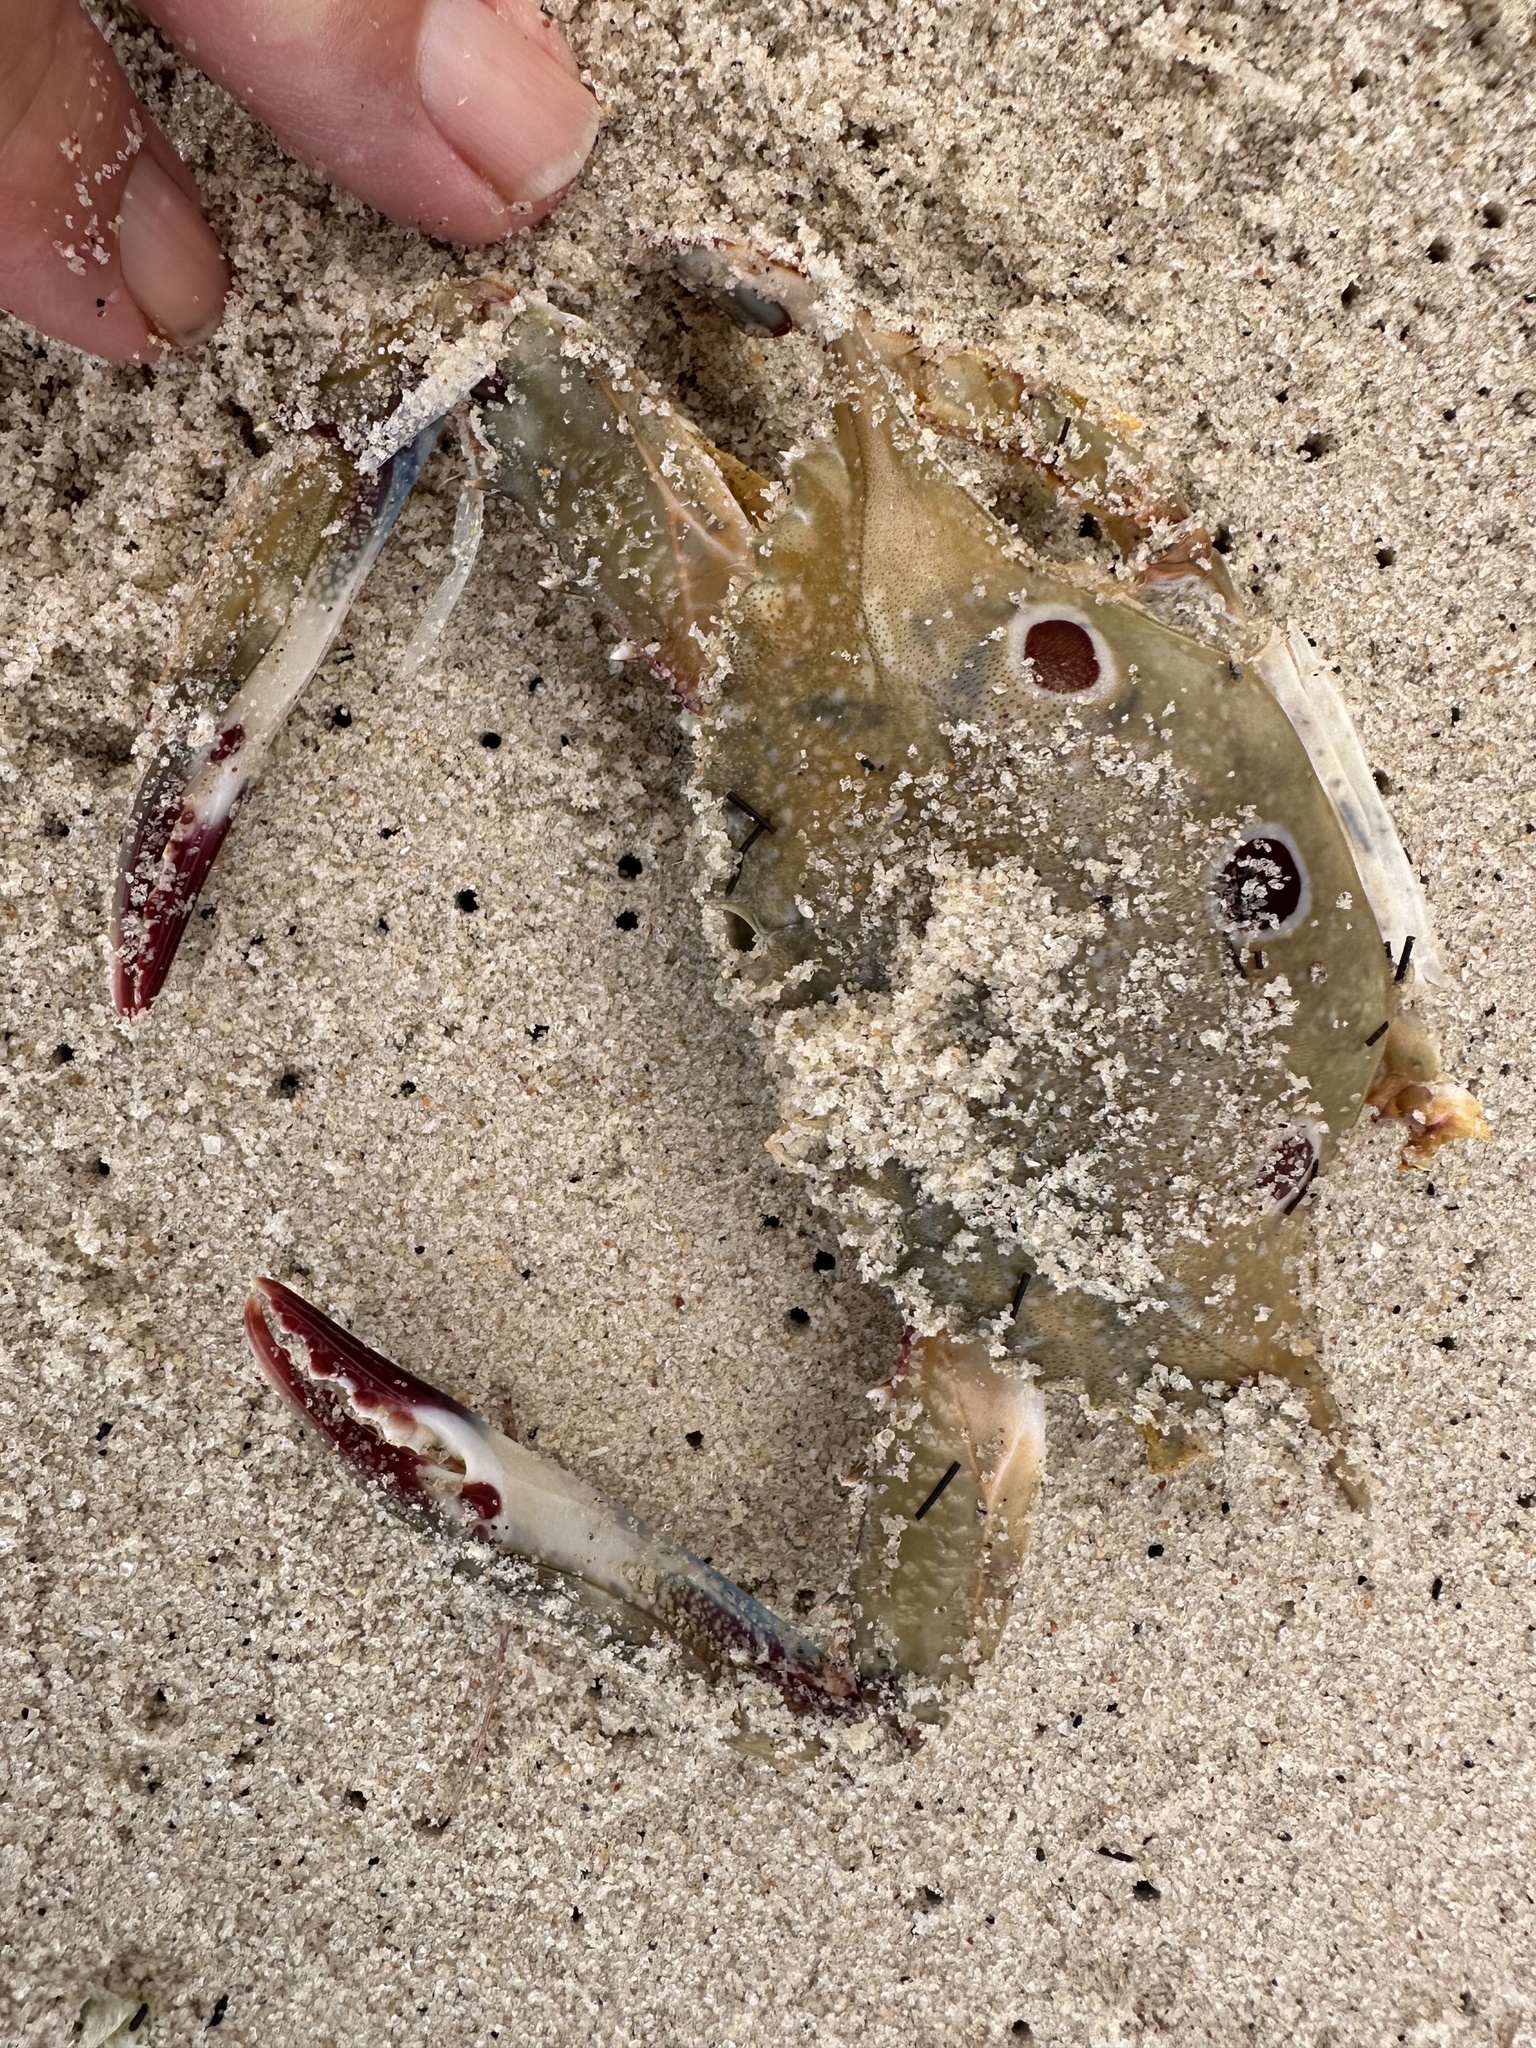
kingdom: Animalia
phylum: Arthropoda
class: Malacostraca
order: Decapoda
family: Portunidae
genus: Portunus
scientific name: Portunus sanguinolentus
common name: Blood-spotted swimming crab
